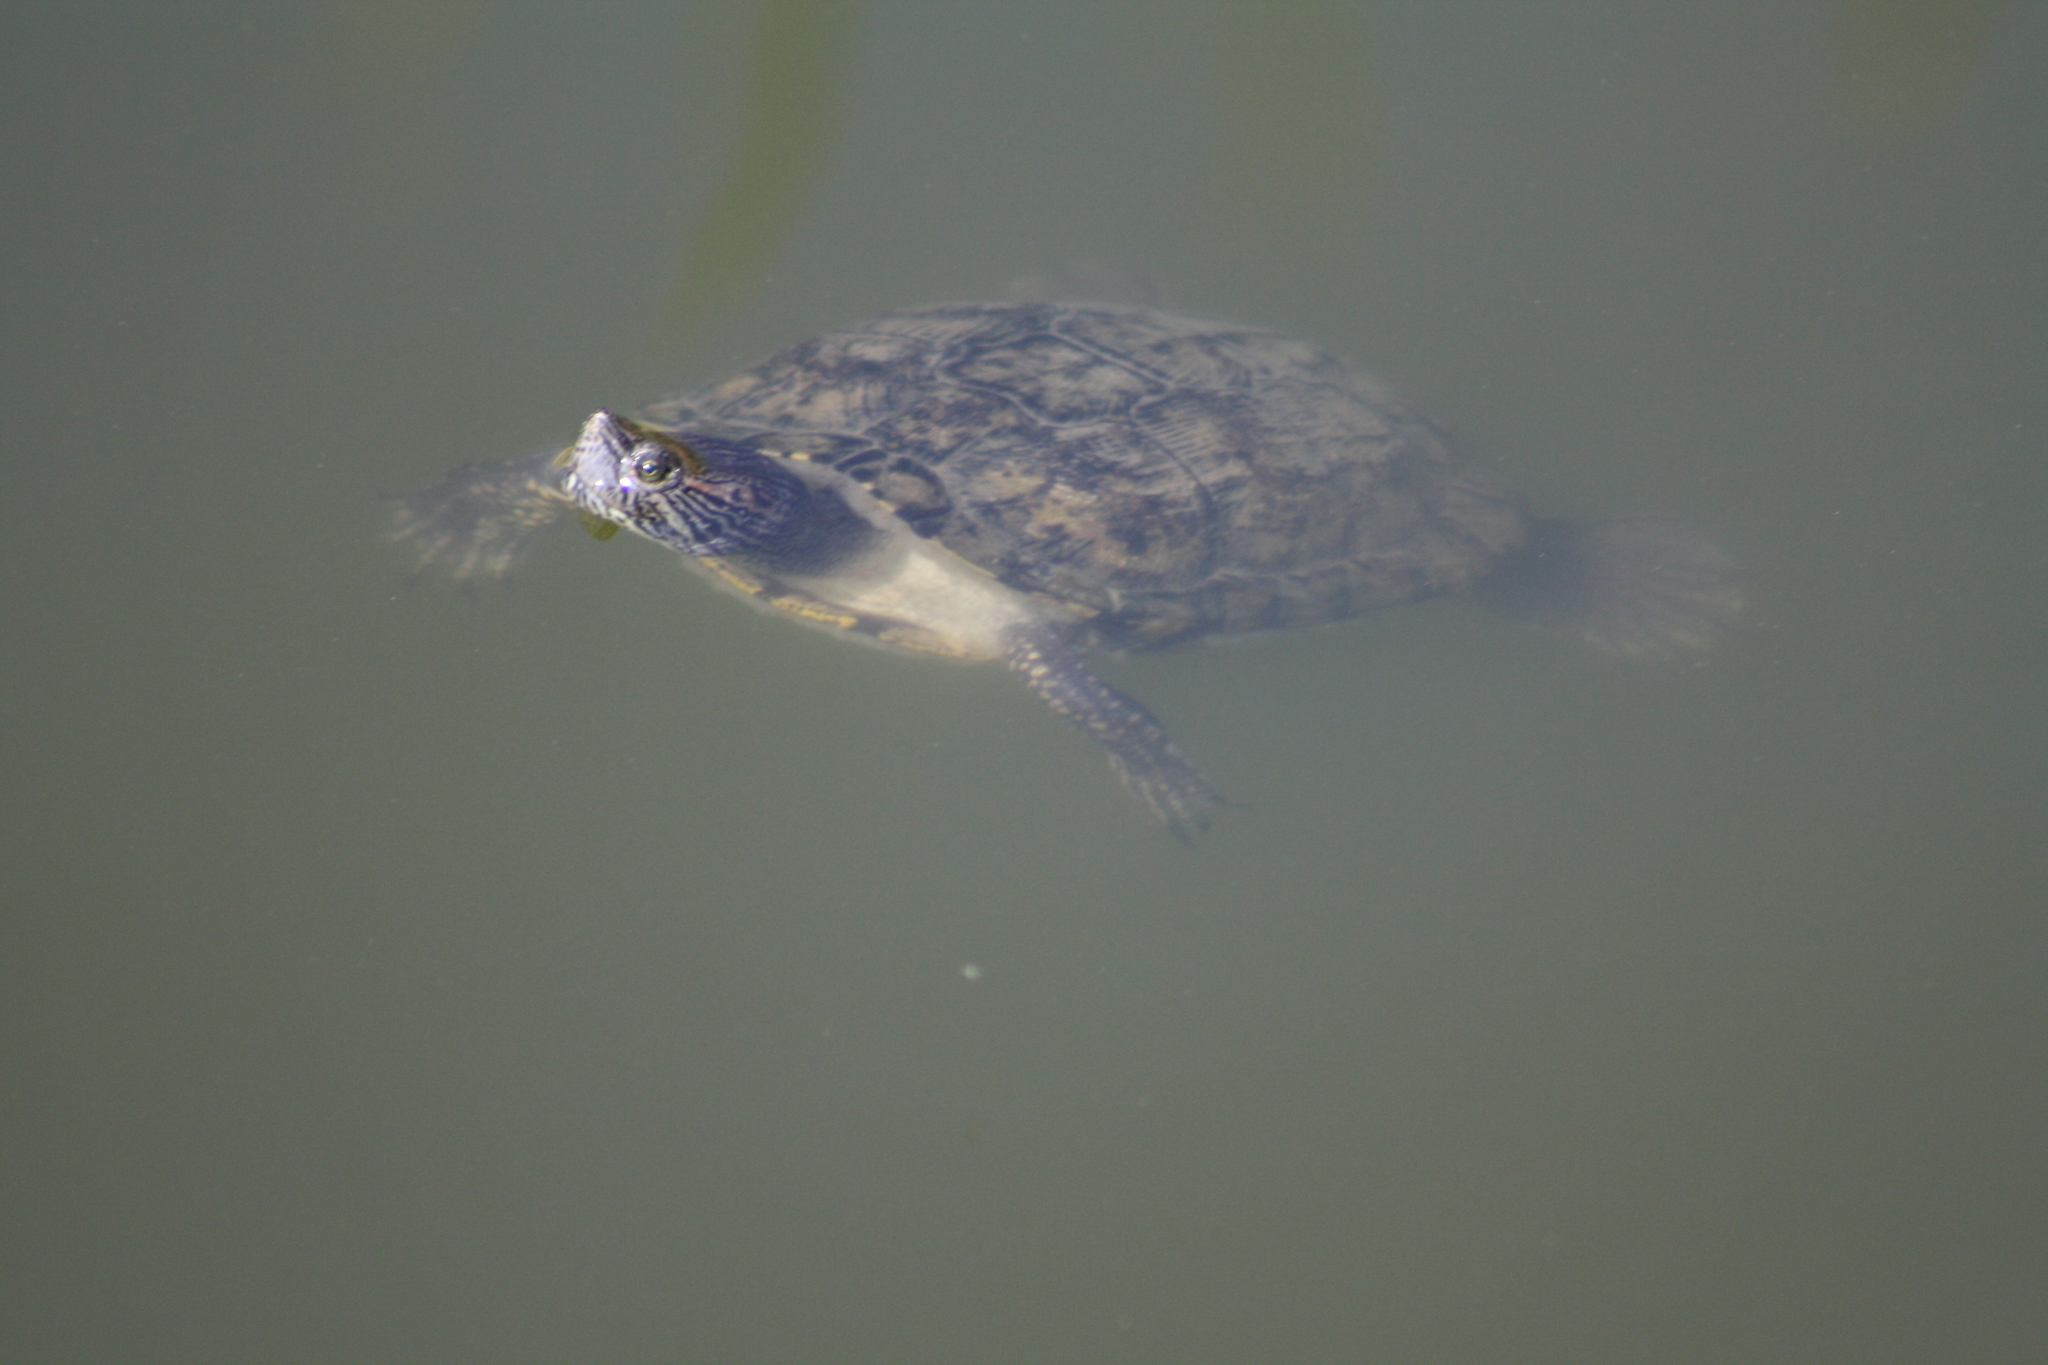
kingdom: Animalia
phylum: Chordata
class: Testudines
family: Emydidae
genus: Trachemys
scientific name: Trachemys scripta
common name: Slider
